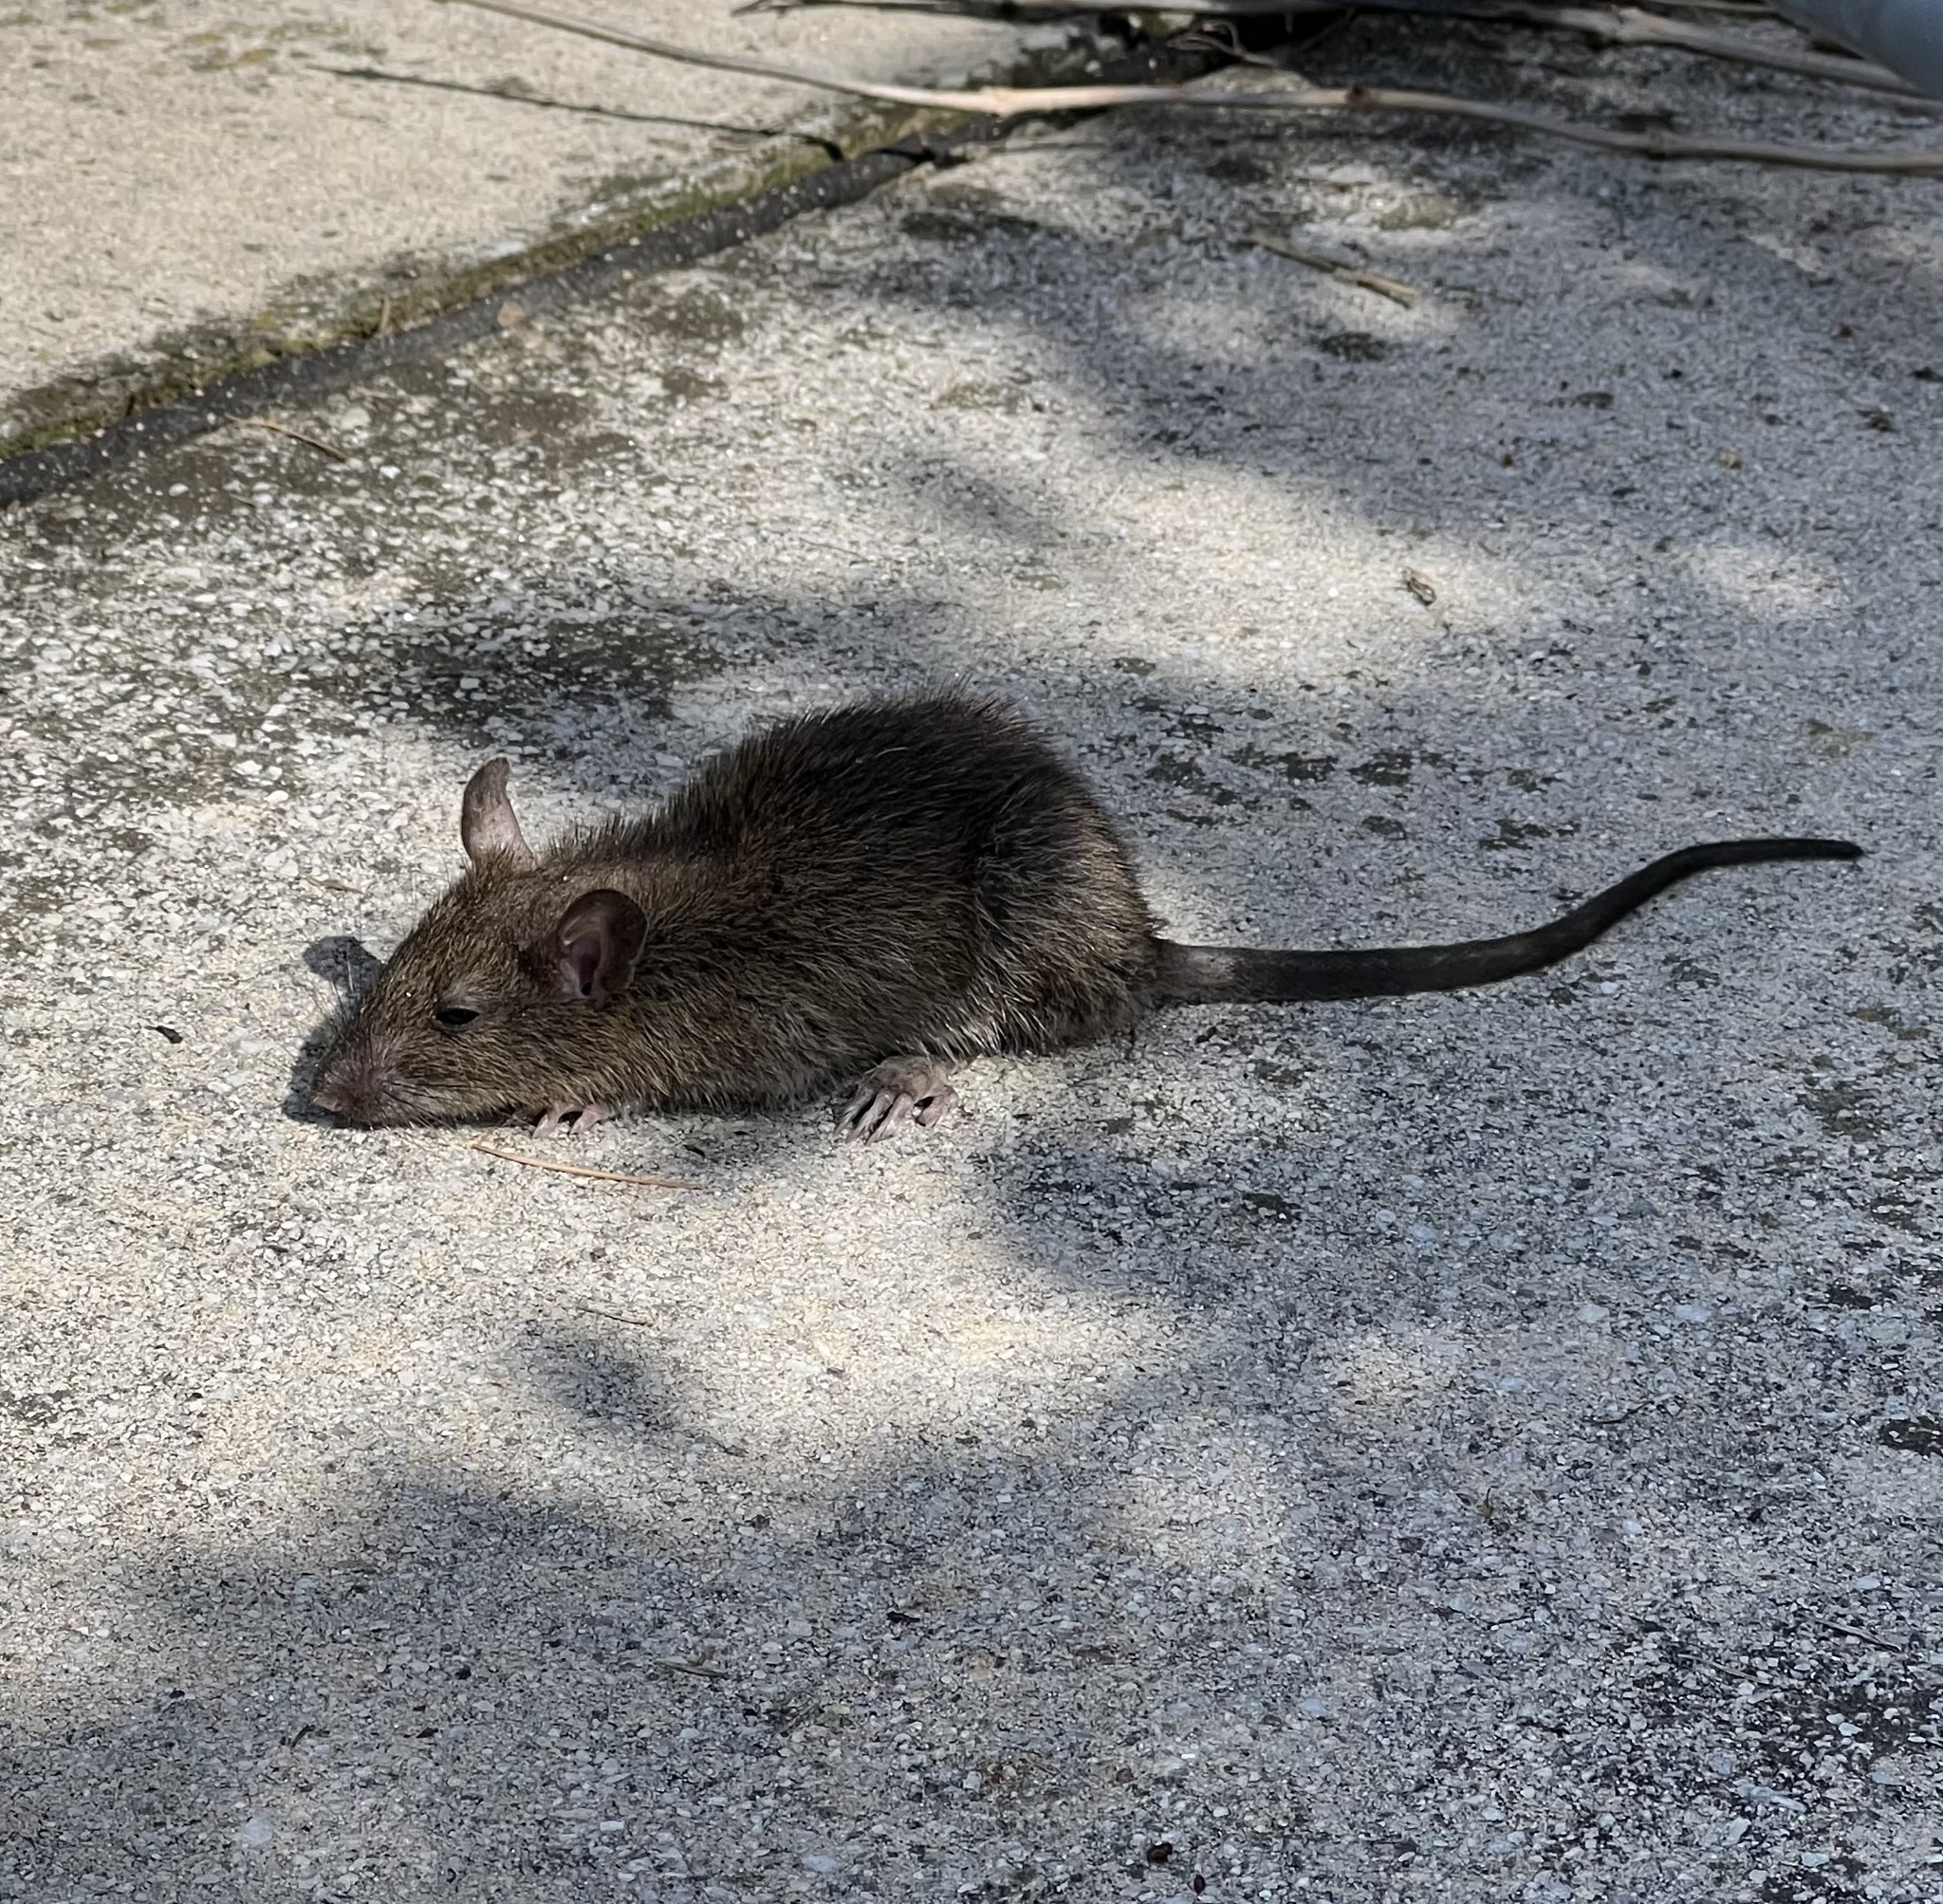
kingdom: Animalia
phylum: Chordata
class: Mammalia
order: Rodentia
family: Muridae
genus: Rattus
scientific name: Rattus norvegicus
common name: Brown rat
